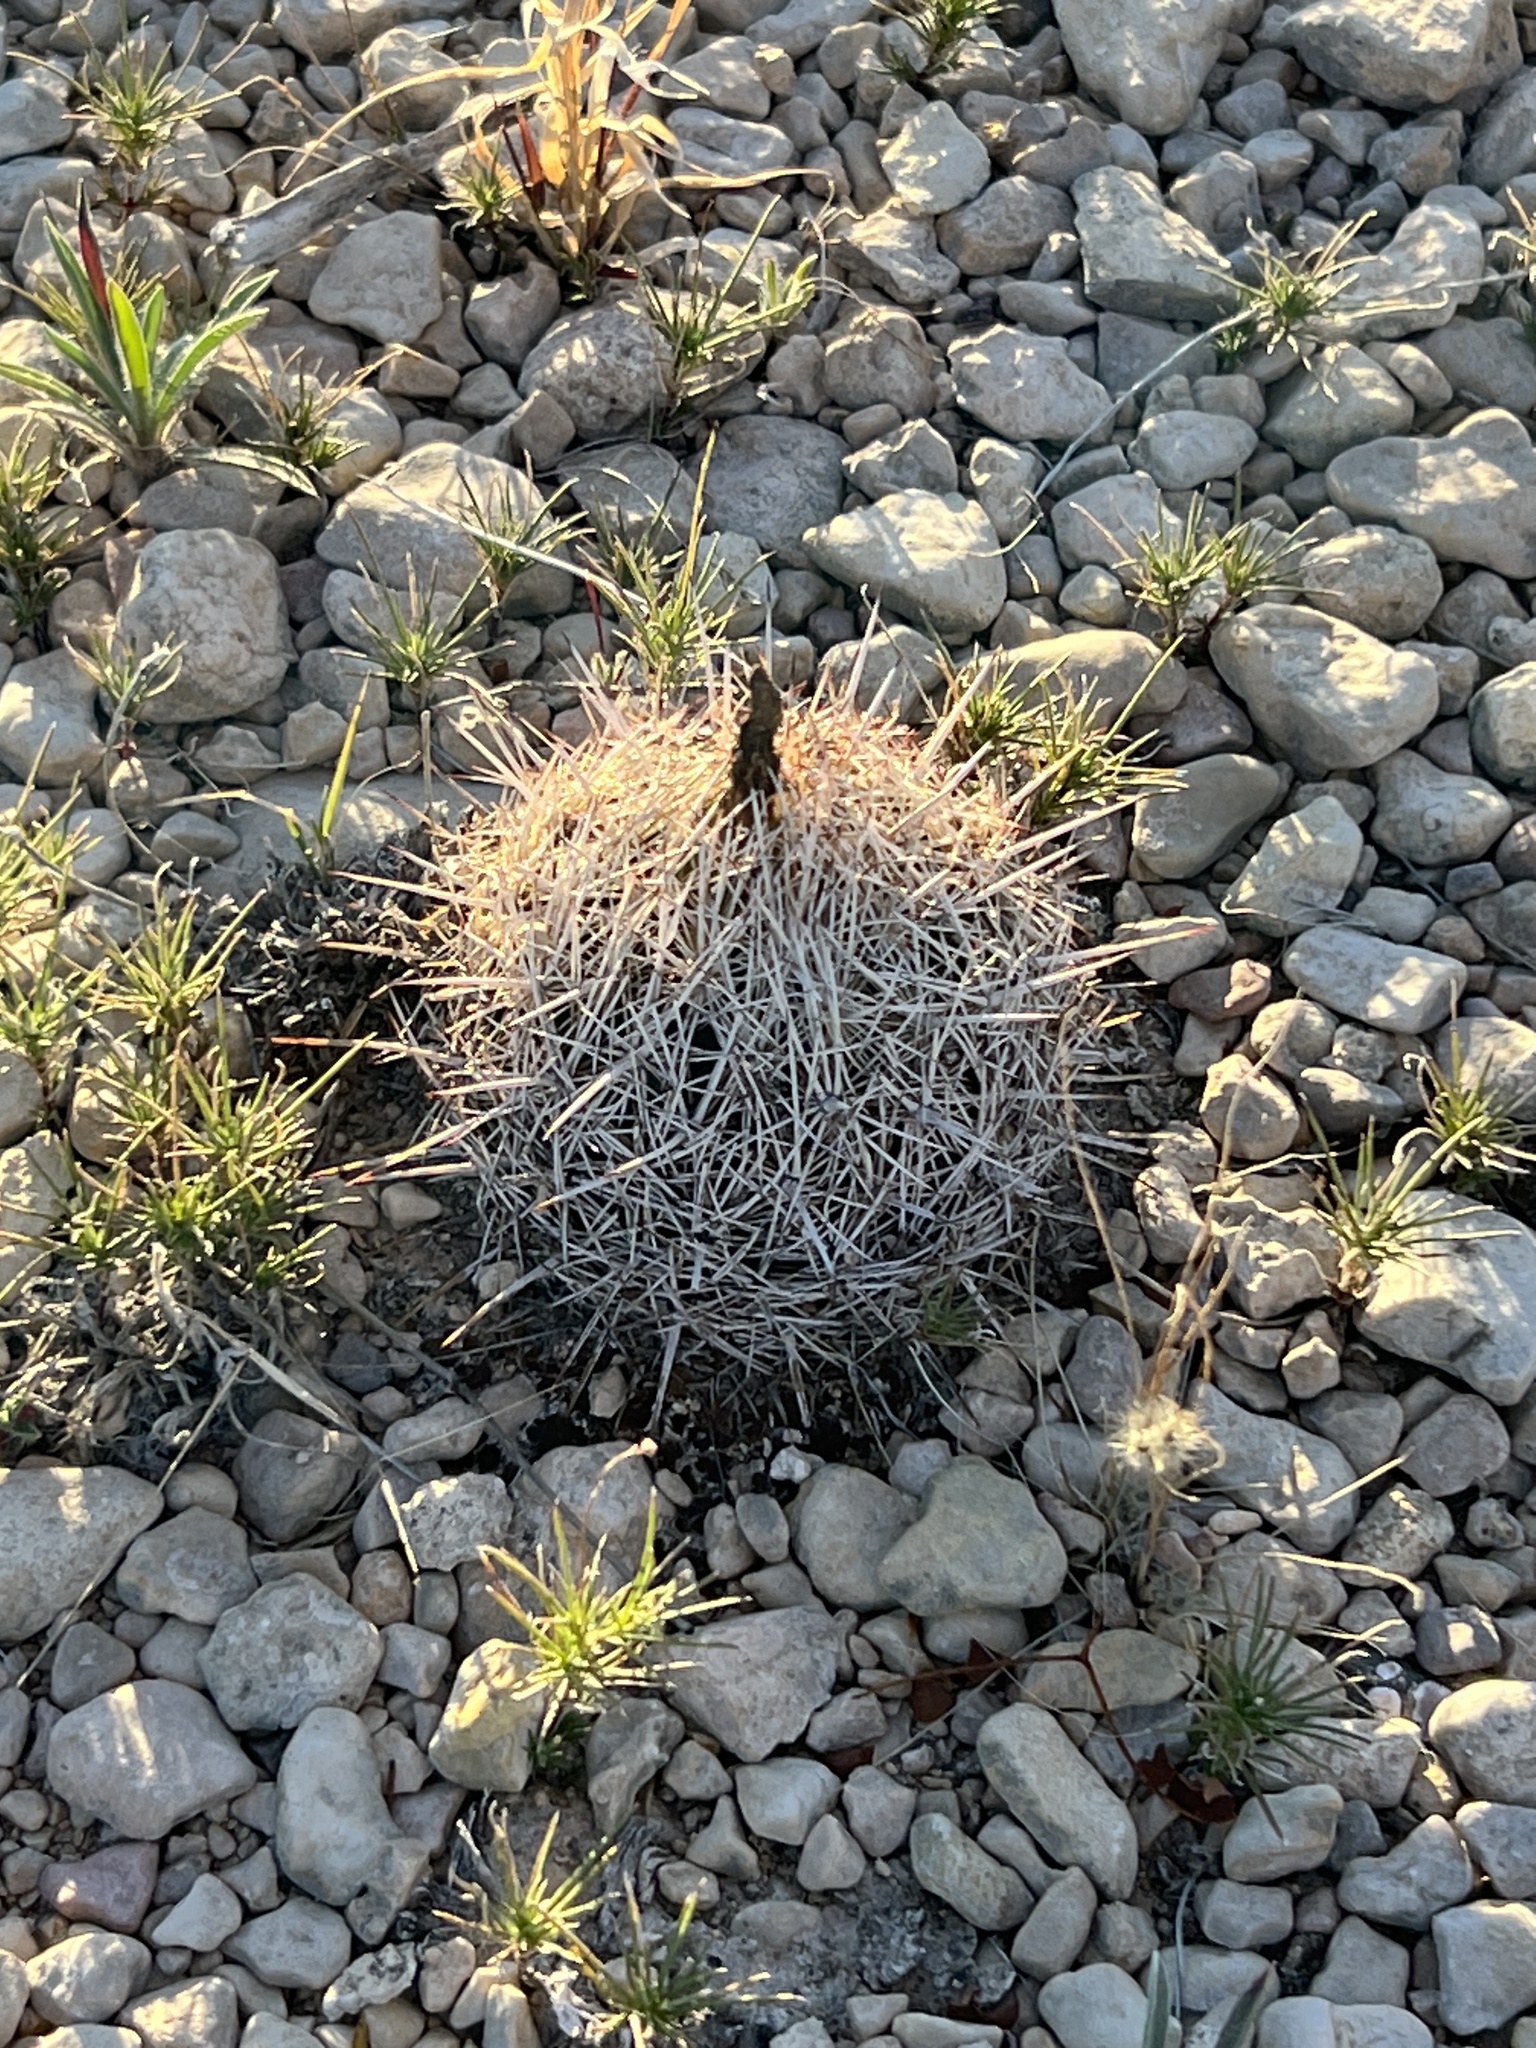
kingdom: Plantae
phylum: Tracheophyta
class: Magnoliopsida
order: Caryophyllales
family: Cactaceae
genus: Coryphantha
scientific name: Coryphantha echinus
